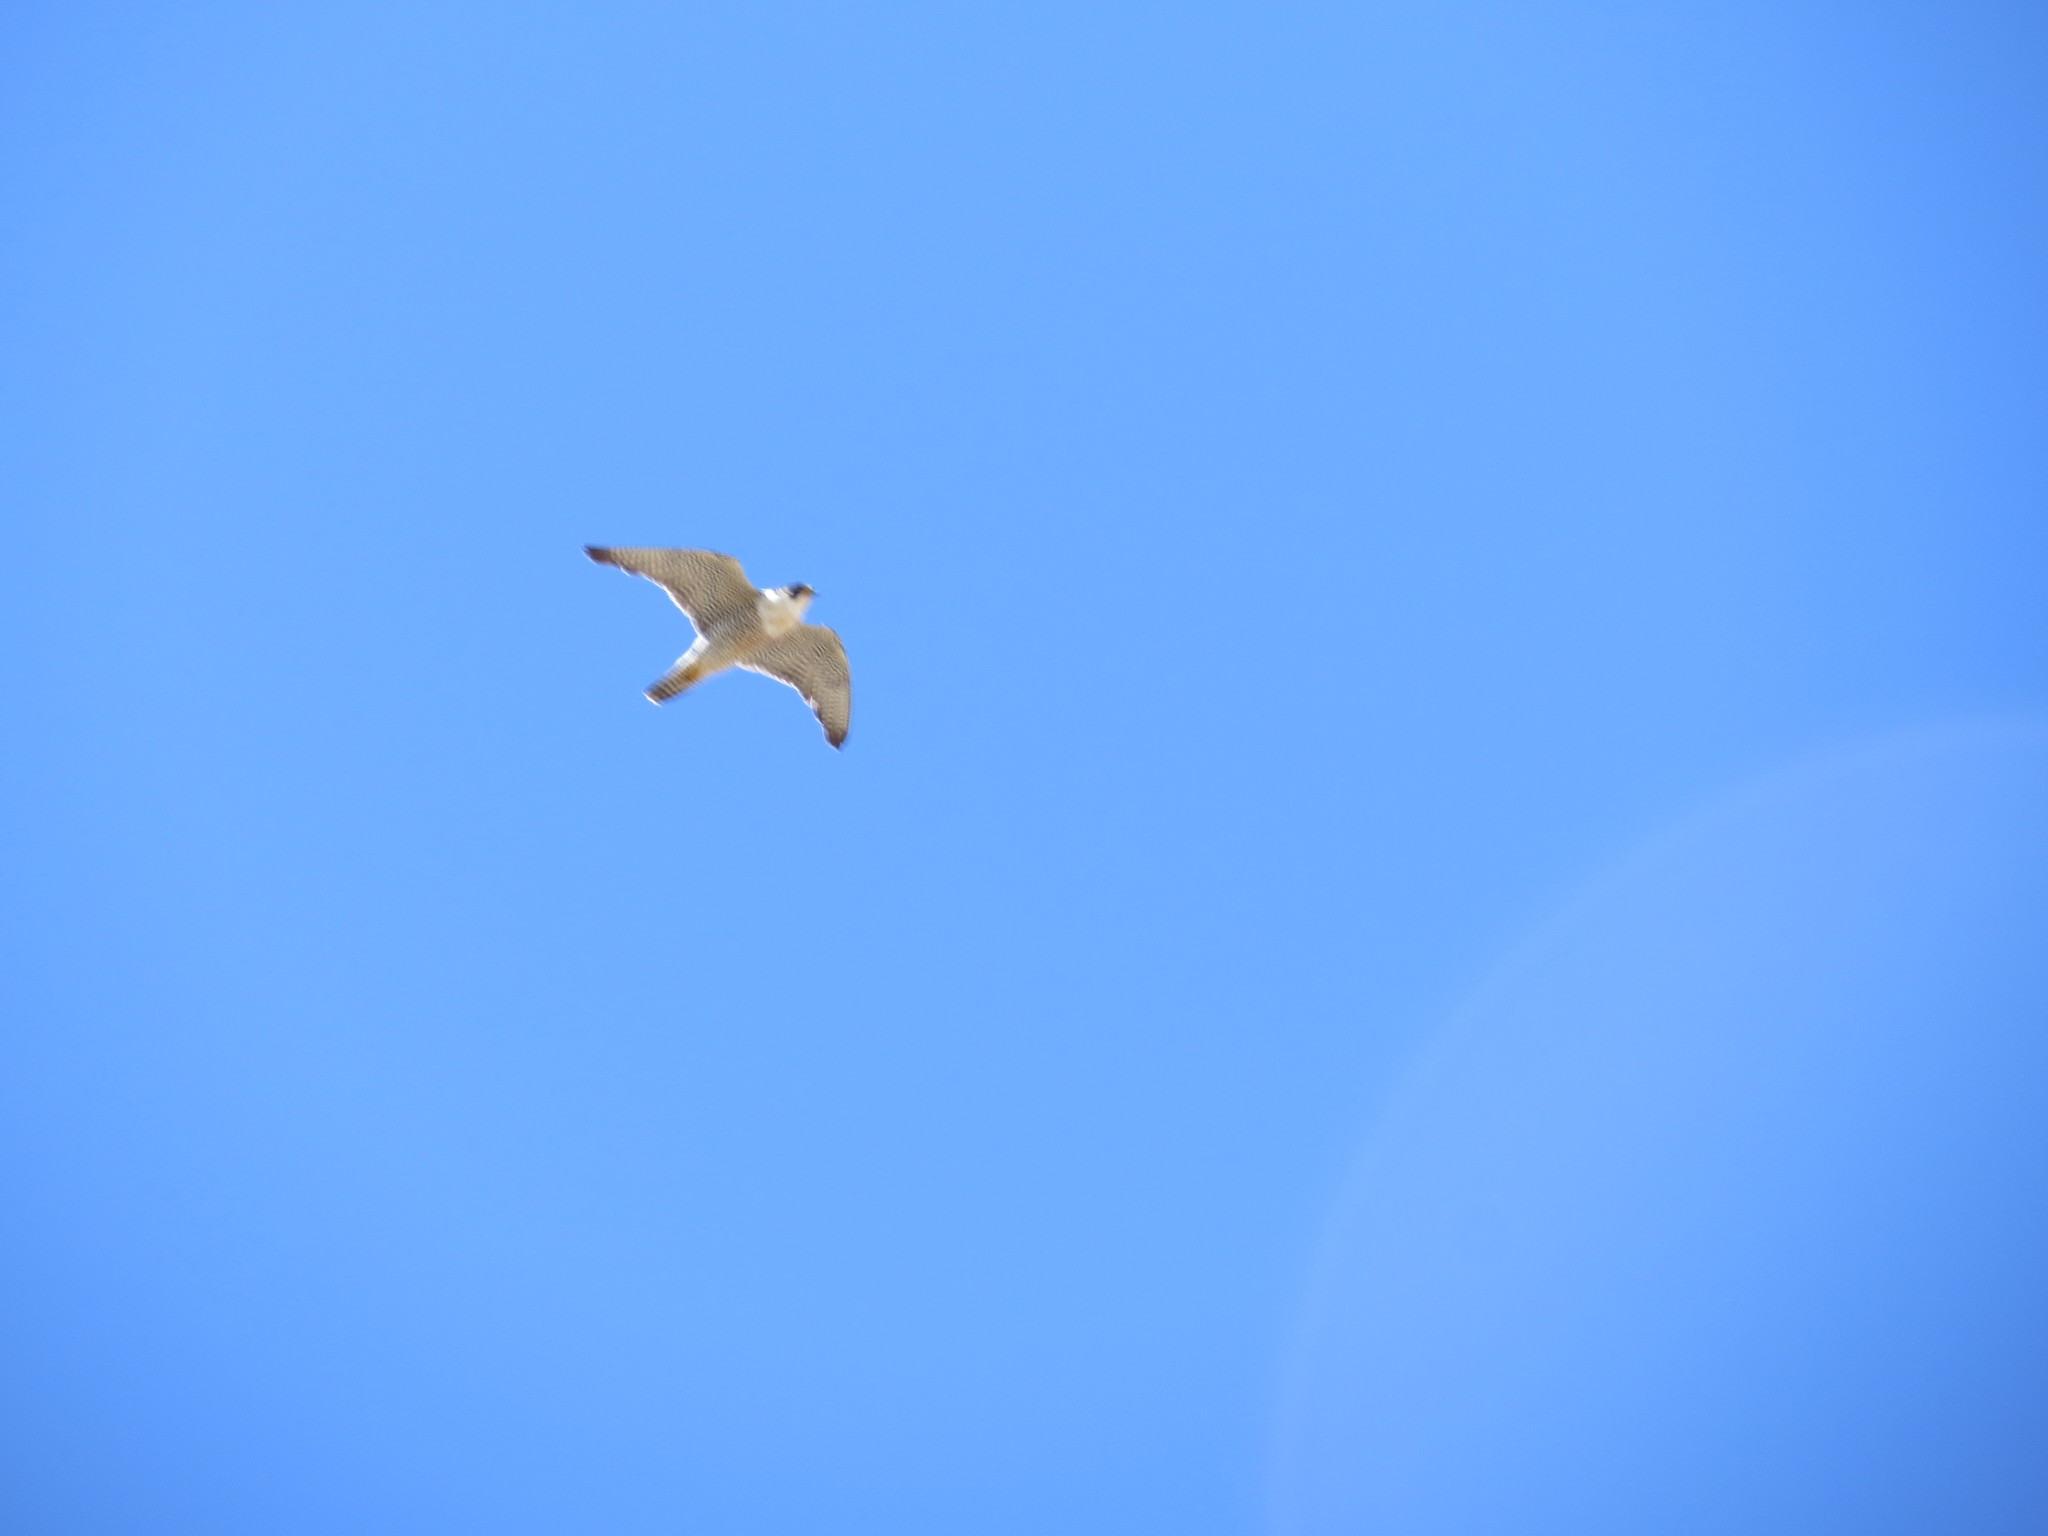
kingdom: Animalia
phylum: Chordata
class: Aves
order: Falconiformes
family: Falconidae
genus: Falco
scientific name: Falco peregrinus
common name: Peregrine falcon
